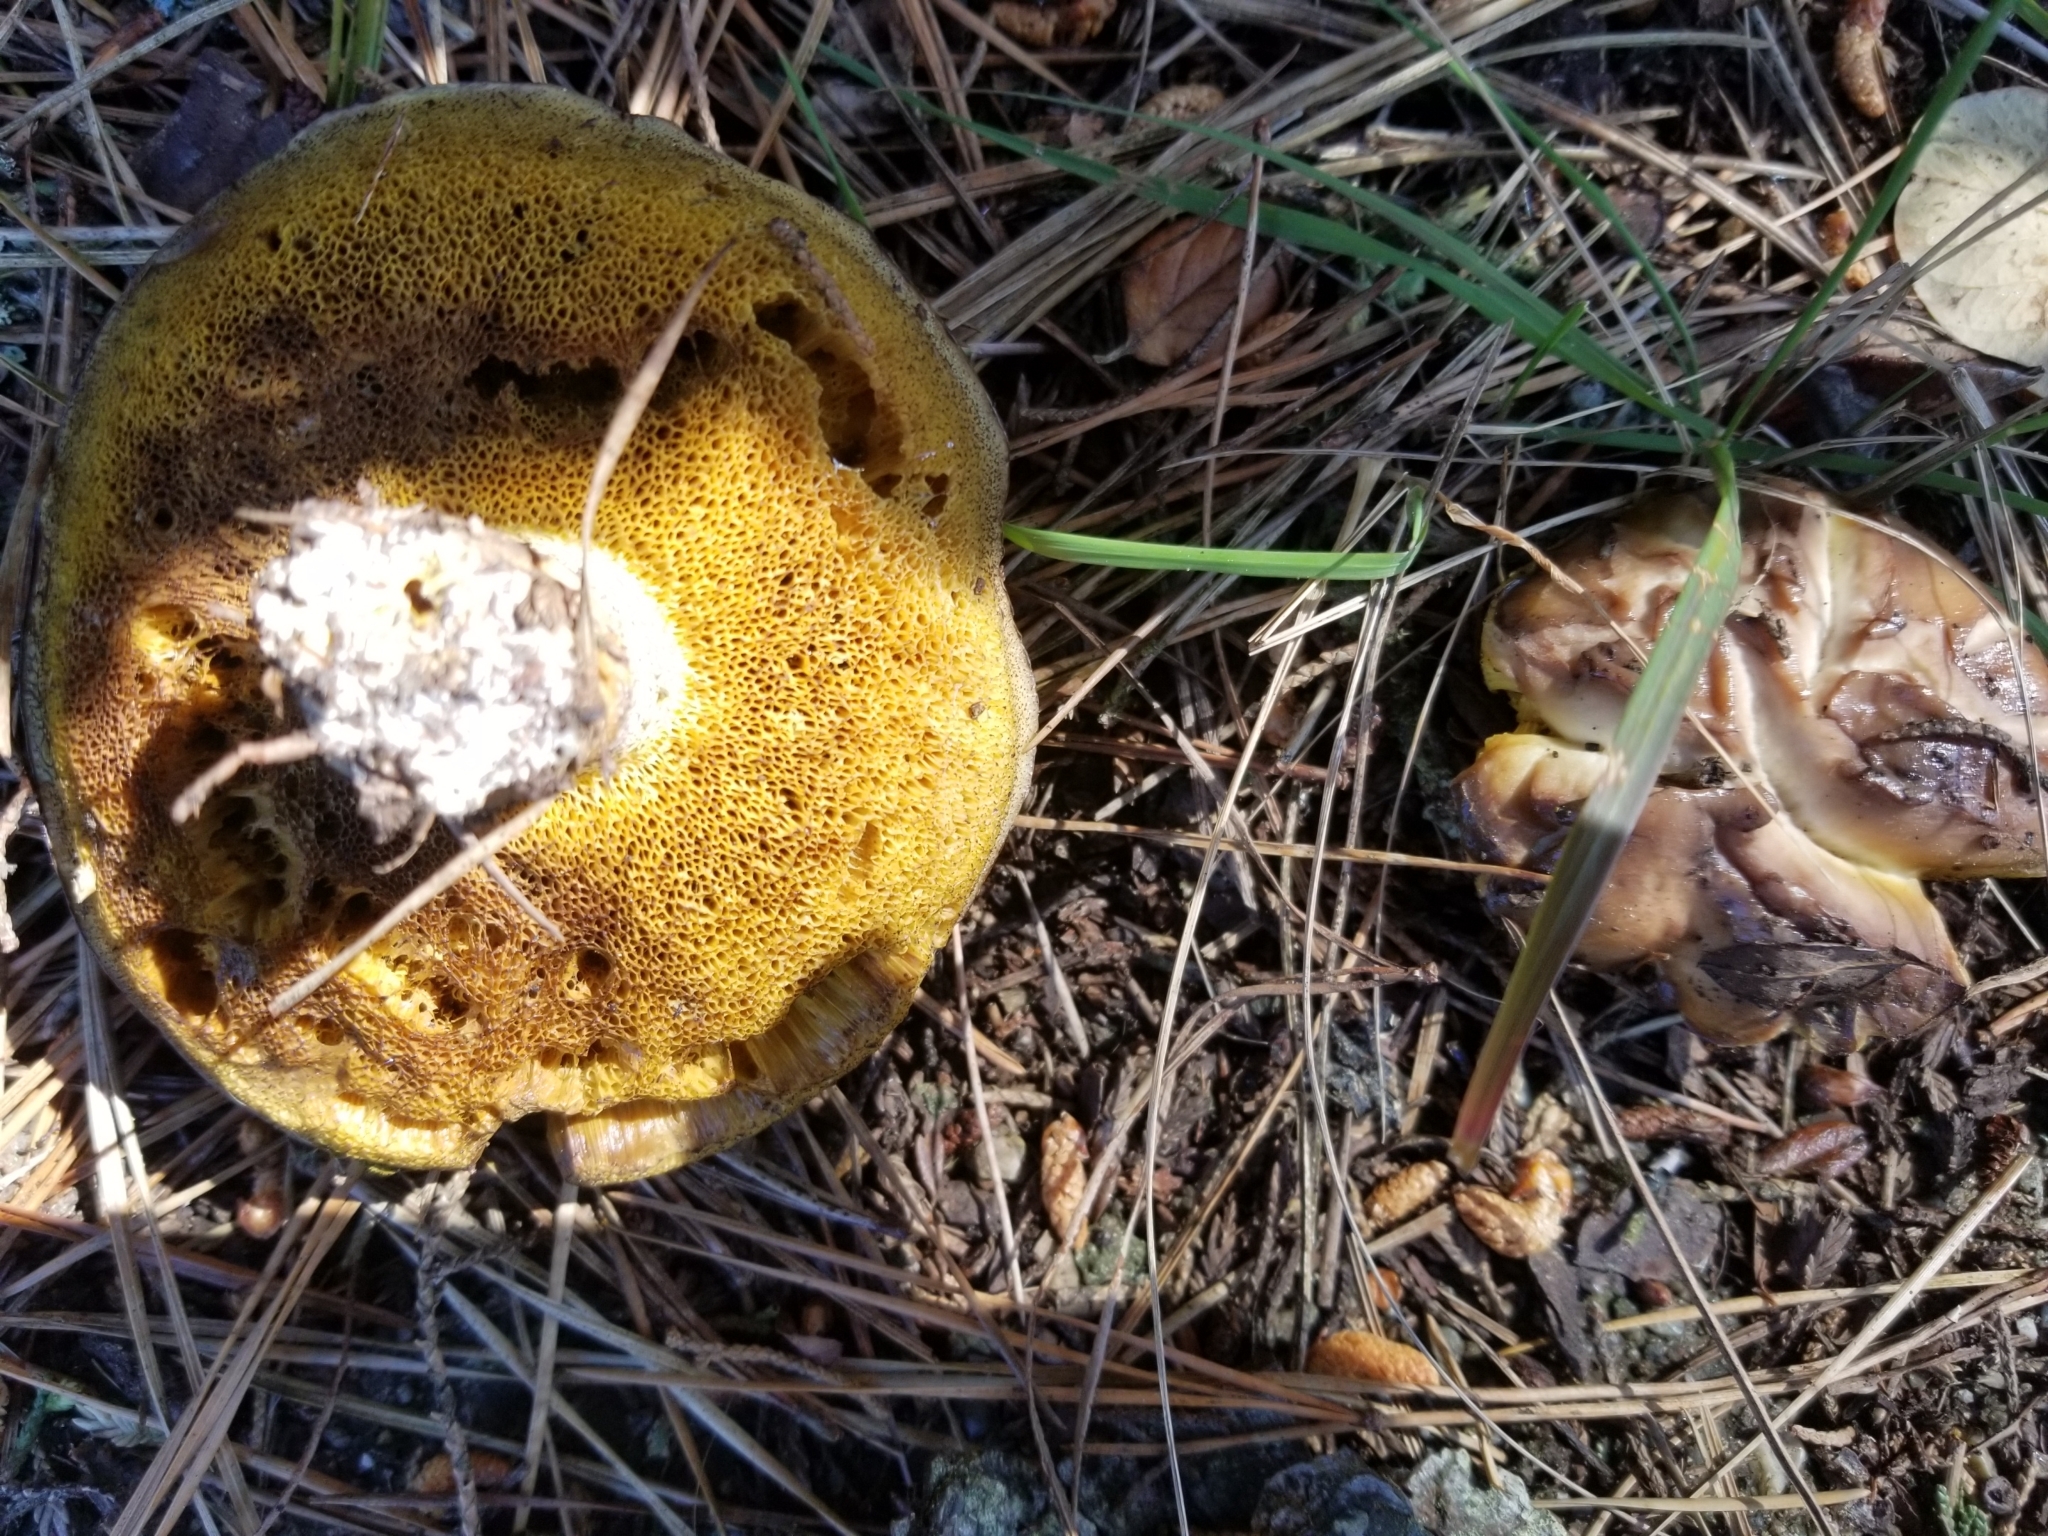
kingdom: Fungi
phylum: Basidiomycota
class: Agaricomycetes
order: Boletales
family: Suillaceae
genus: Suillus
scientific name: Suillus pungens
